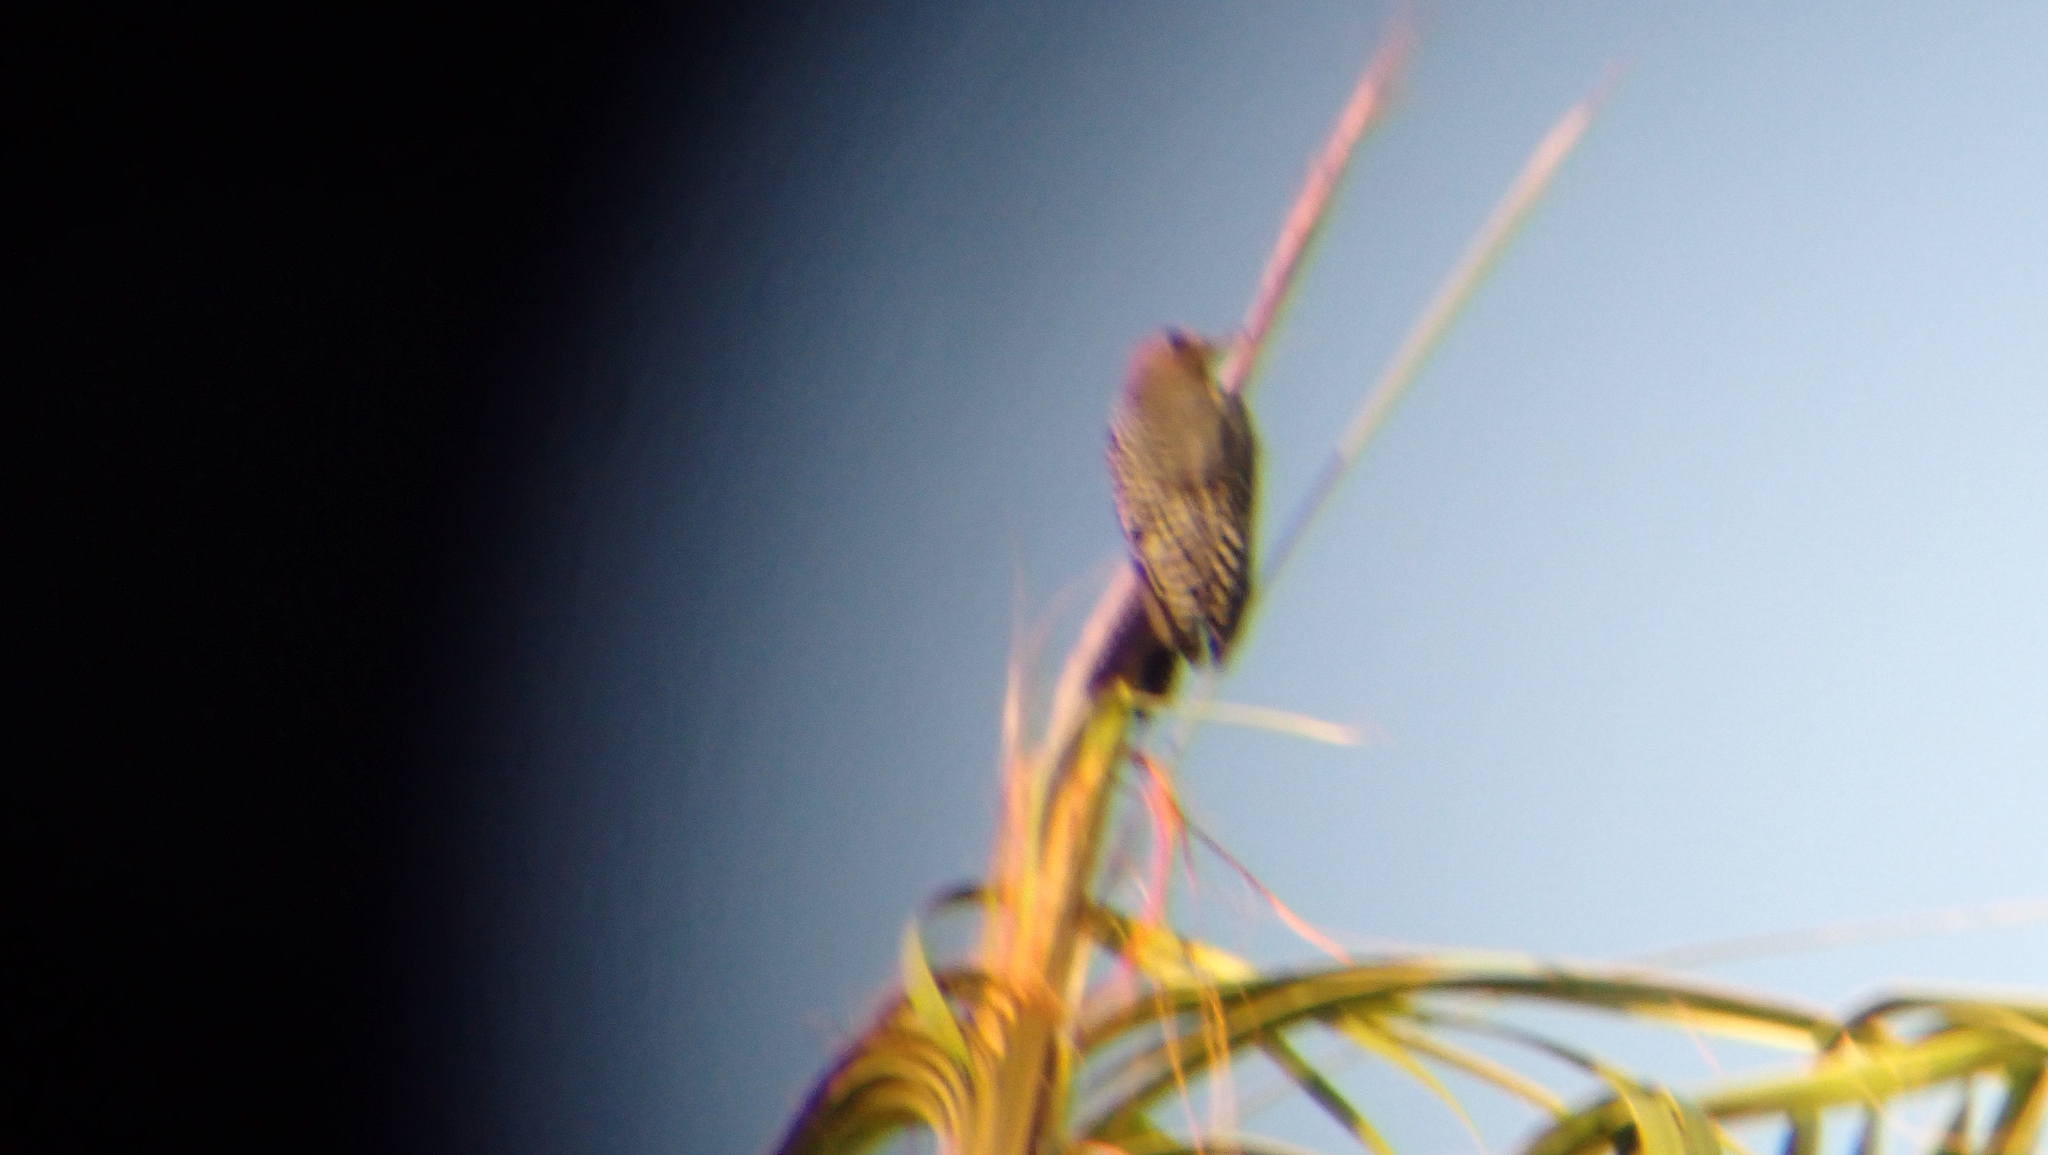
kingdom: Animalia
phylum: Chordata
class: Aves
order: Piciformes
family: Picidae
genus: Melanerpes
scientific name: Melanerpes hypopolius
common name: Grey-breasted woodpecker
